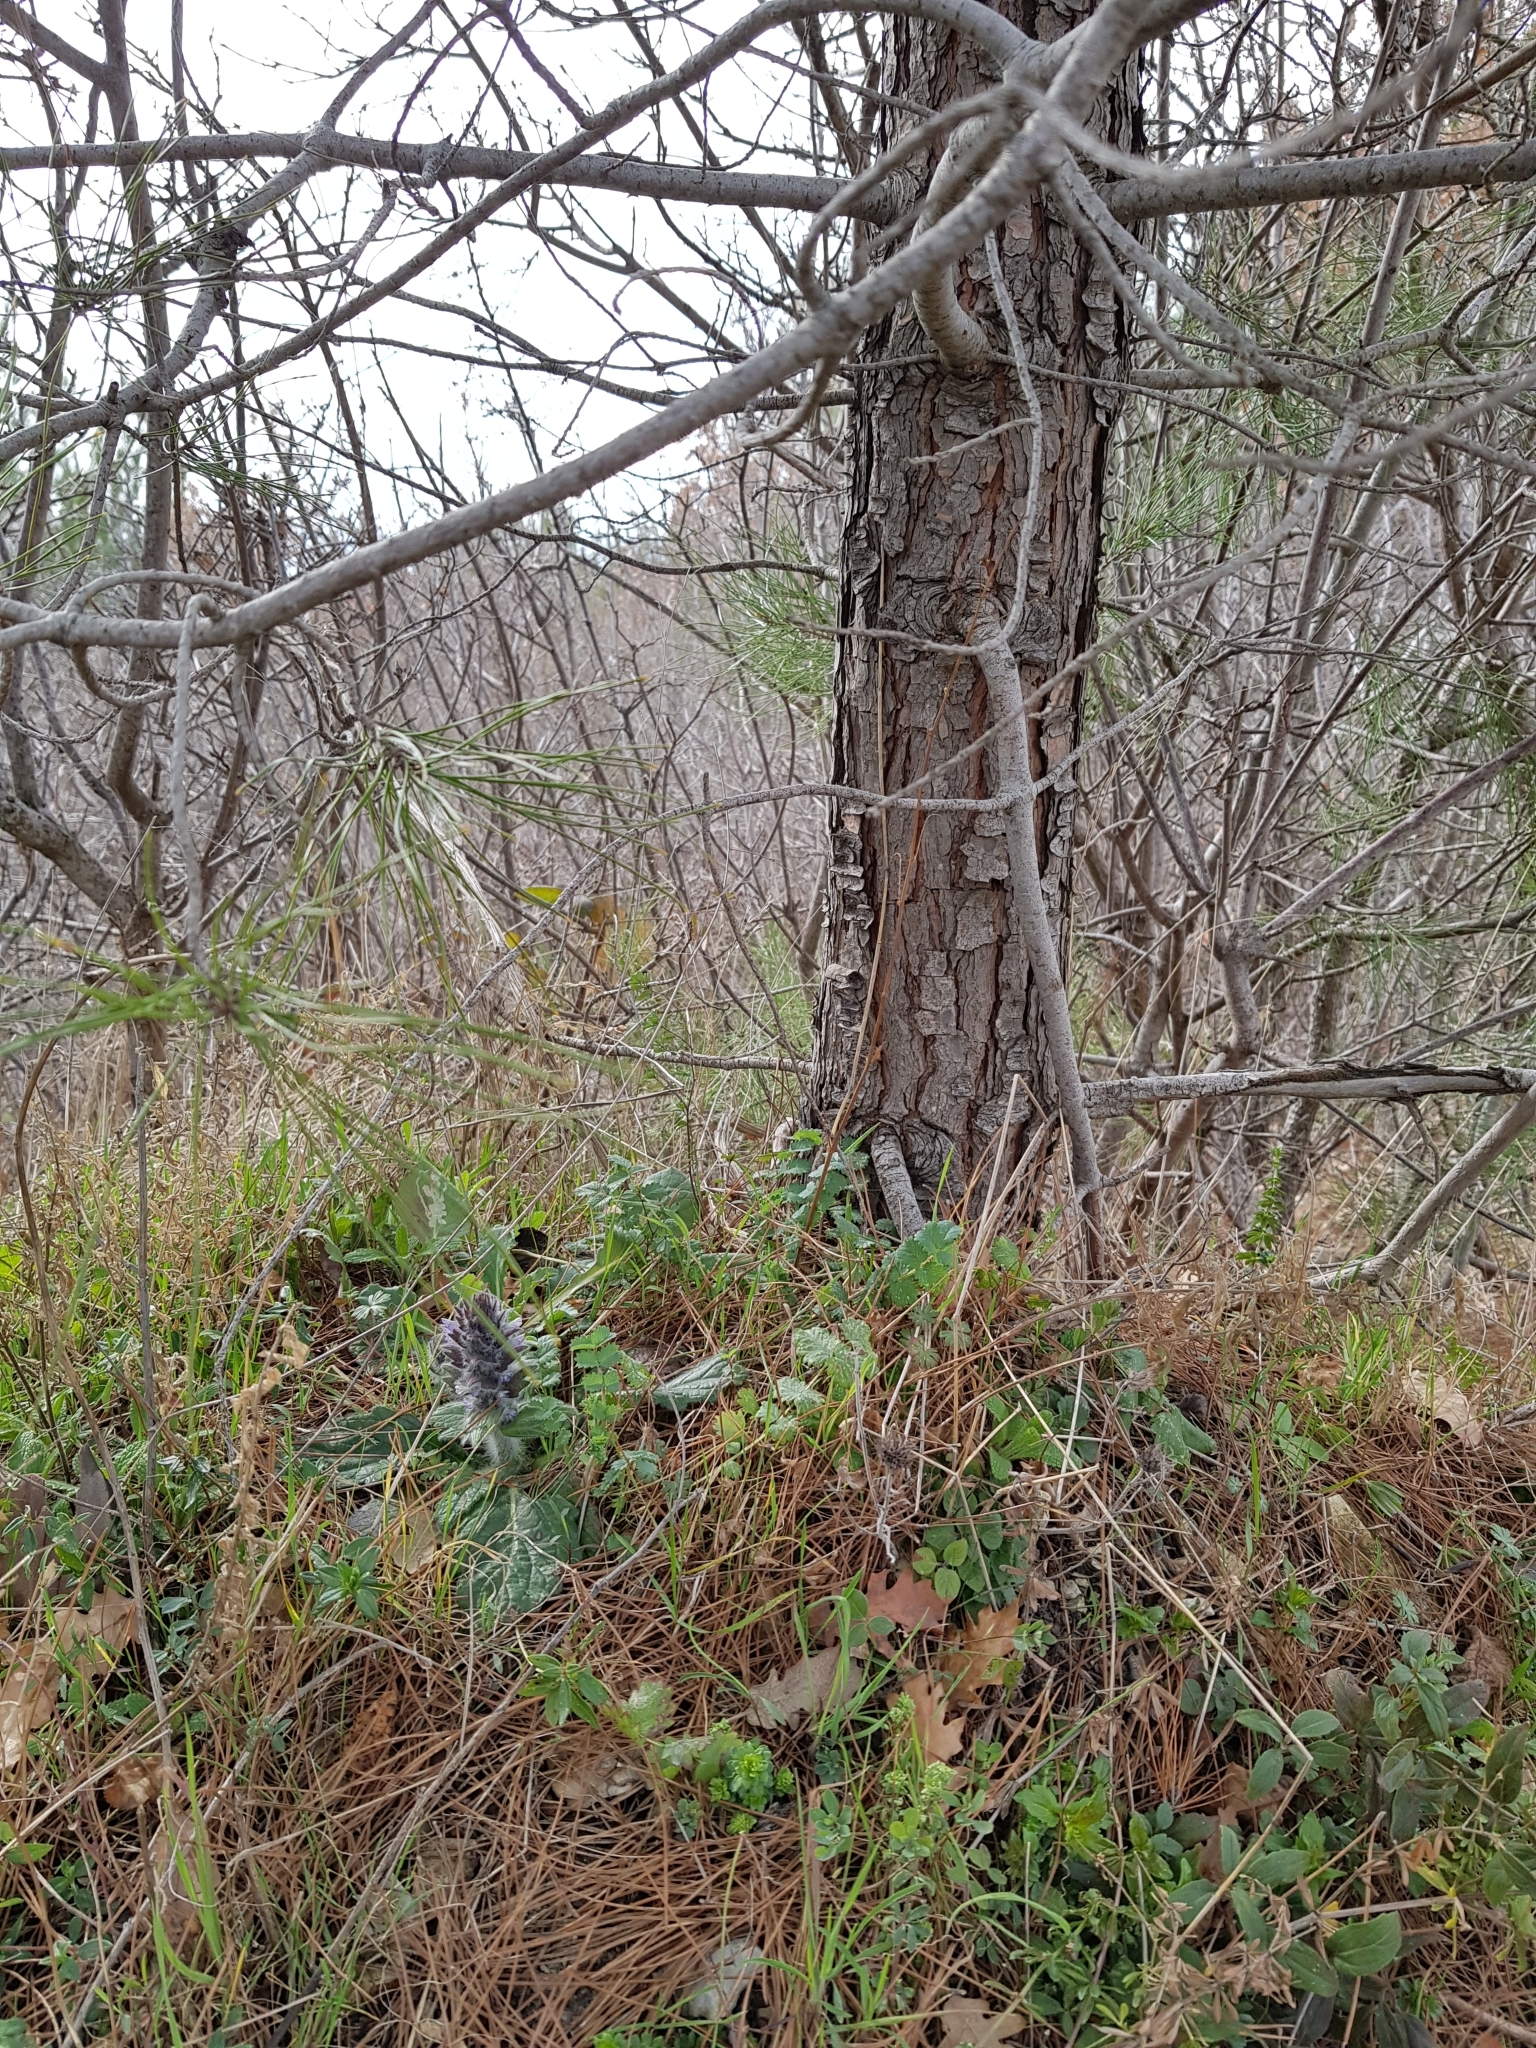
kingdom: Plantae
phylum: Tracheophyta
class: Magnoliopsida
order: Lamiales
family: Lamiaceae
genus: Ajuga
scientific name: Ajuga orientalis
